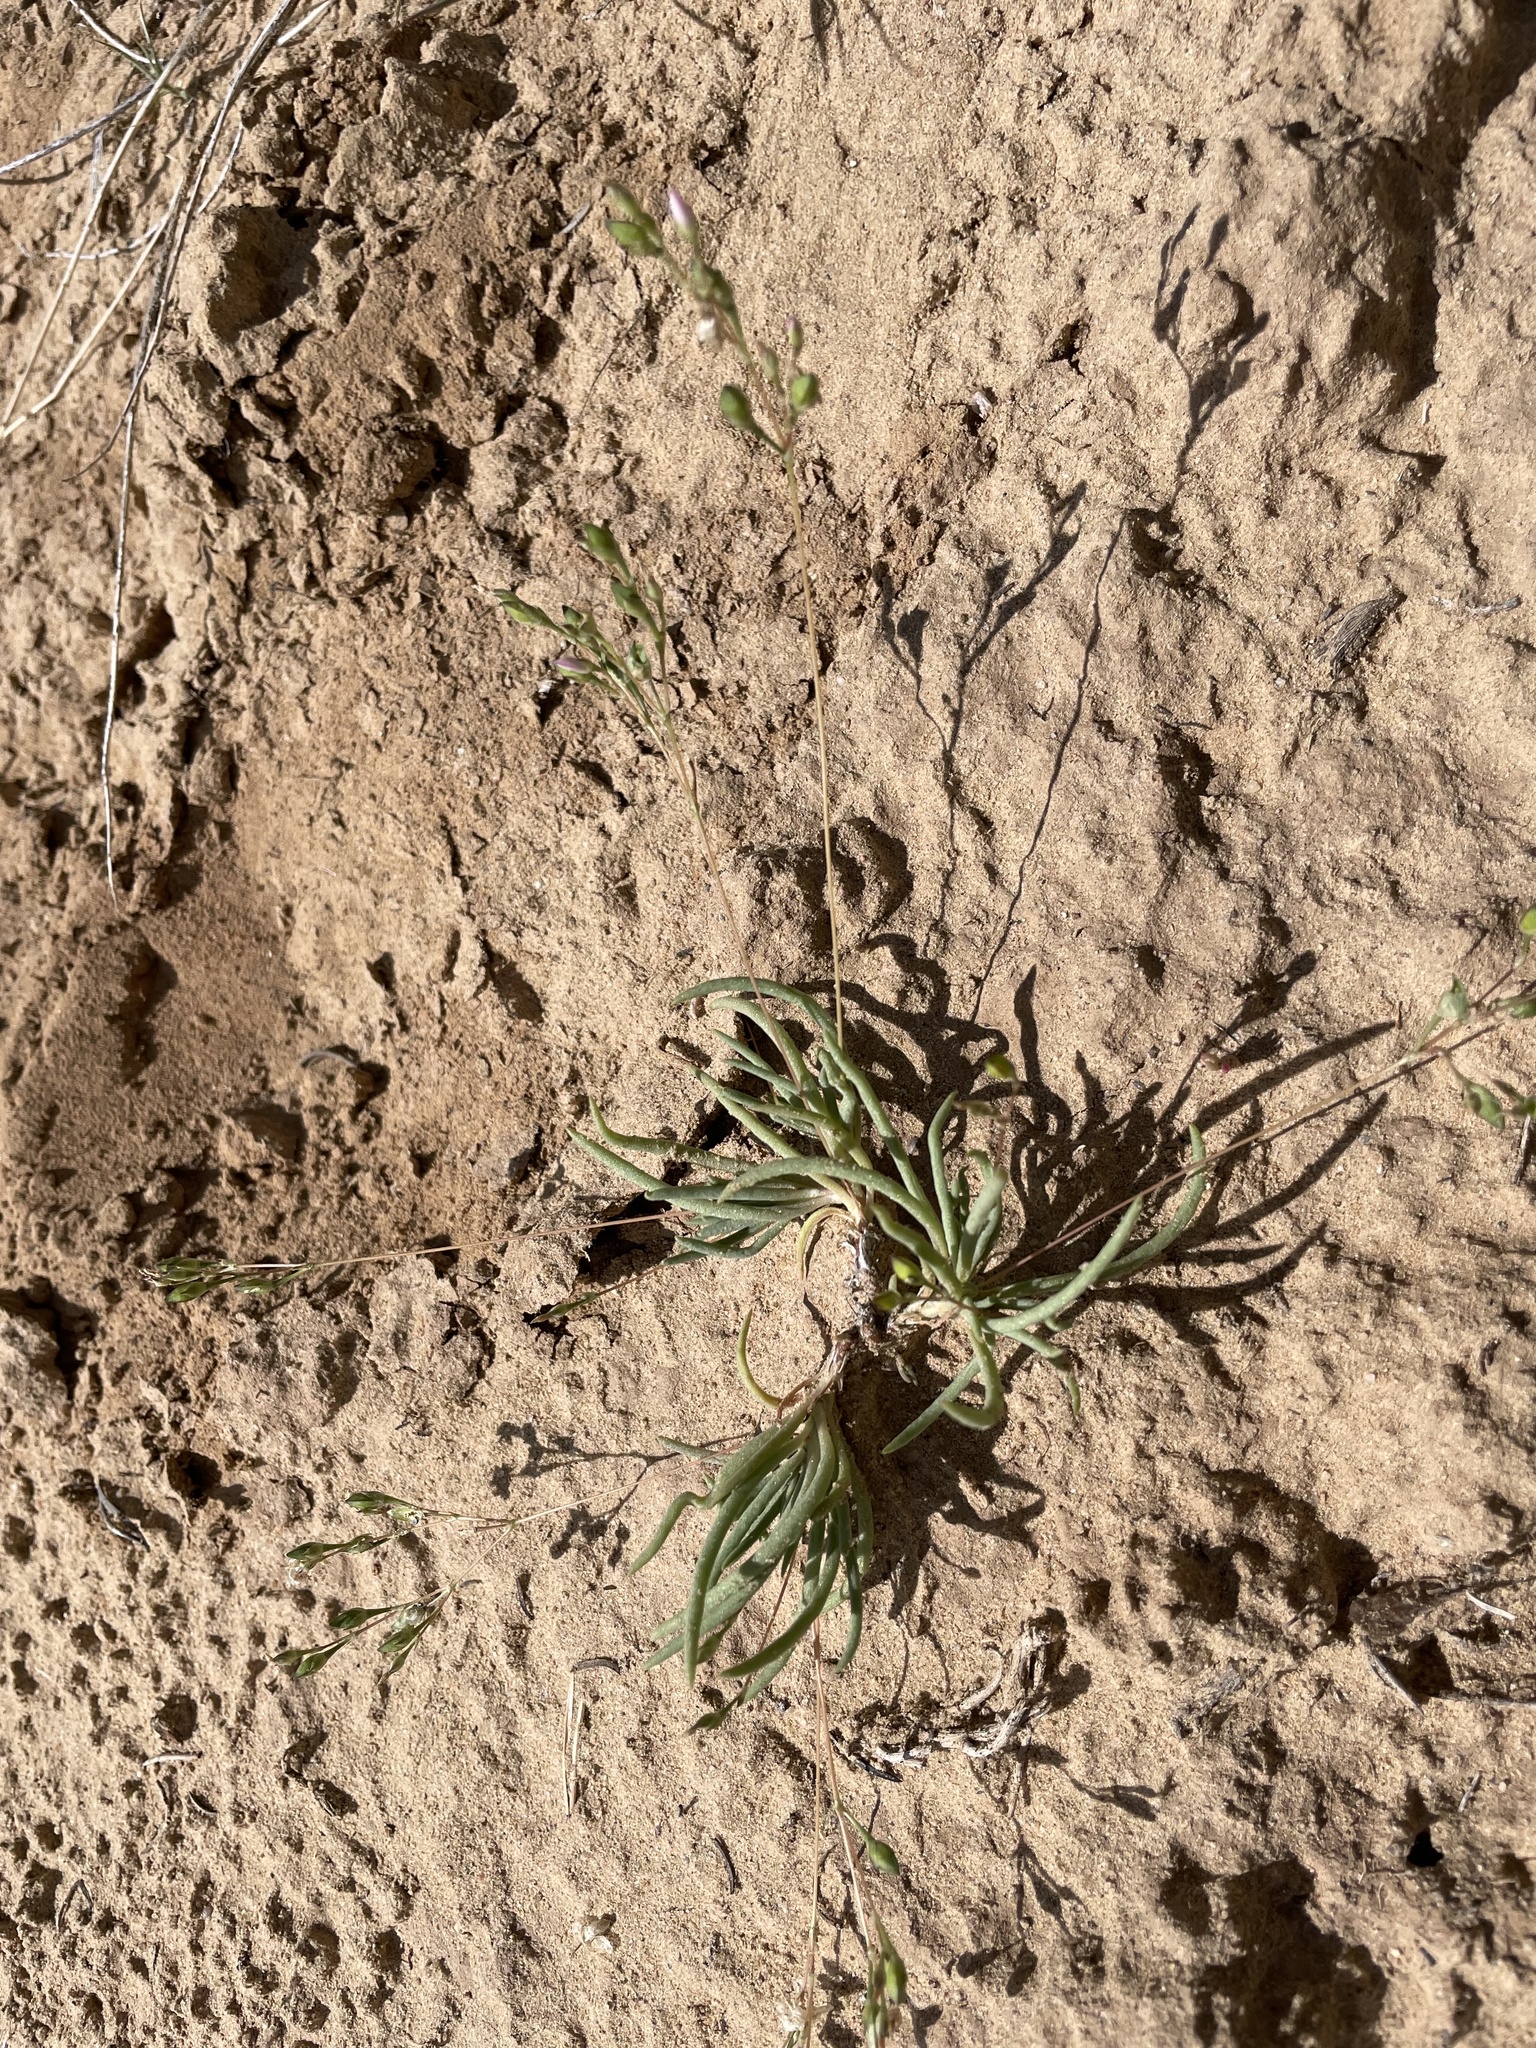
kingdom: Plantae
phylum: Tracheophyta
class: Magnoliopsida
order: Caryophyllales
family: Montiaceae
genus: Phemeranthus
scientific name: Phemeranthus confertiflorus
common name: New mexico fameflower
